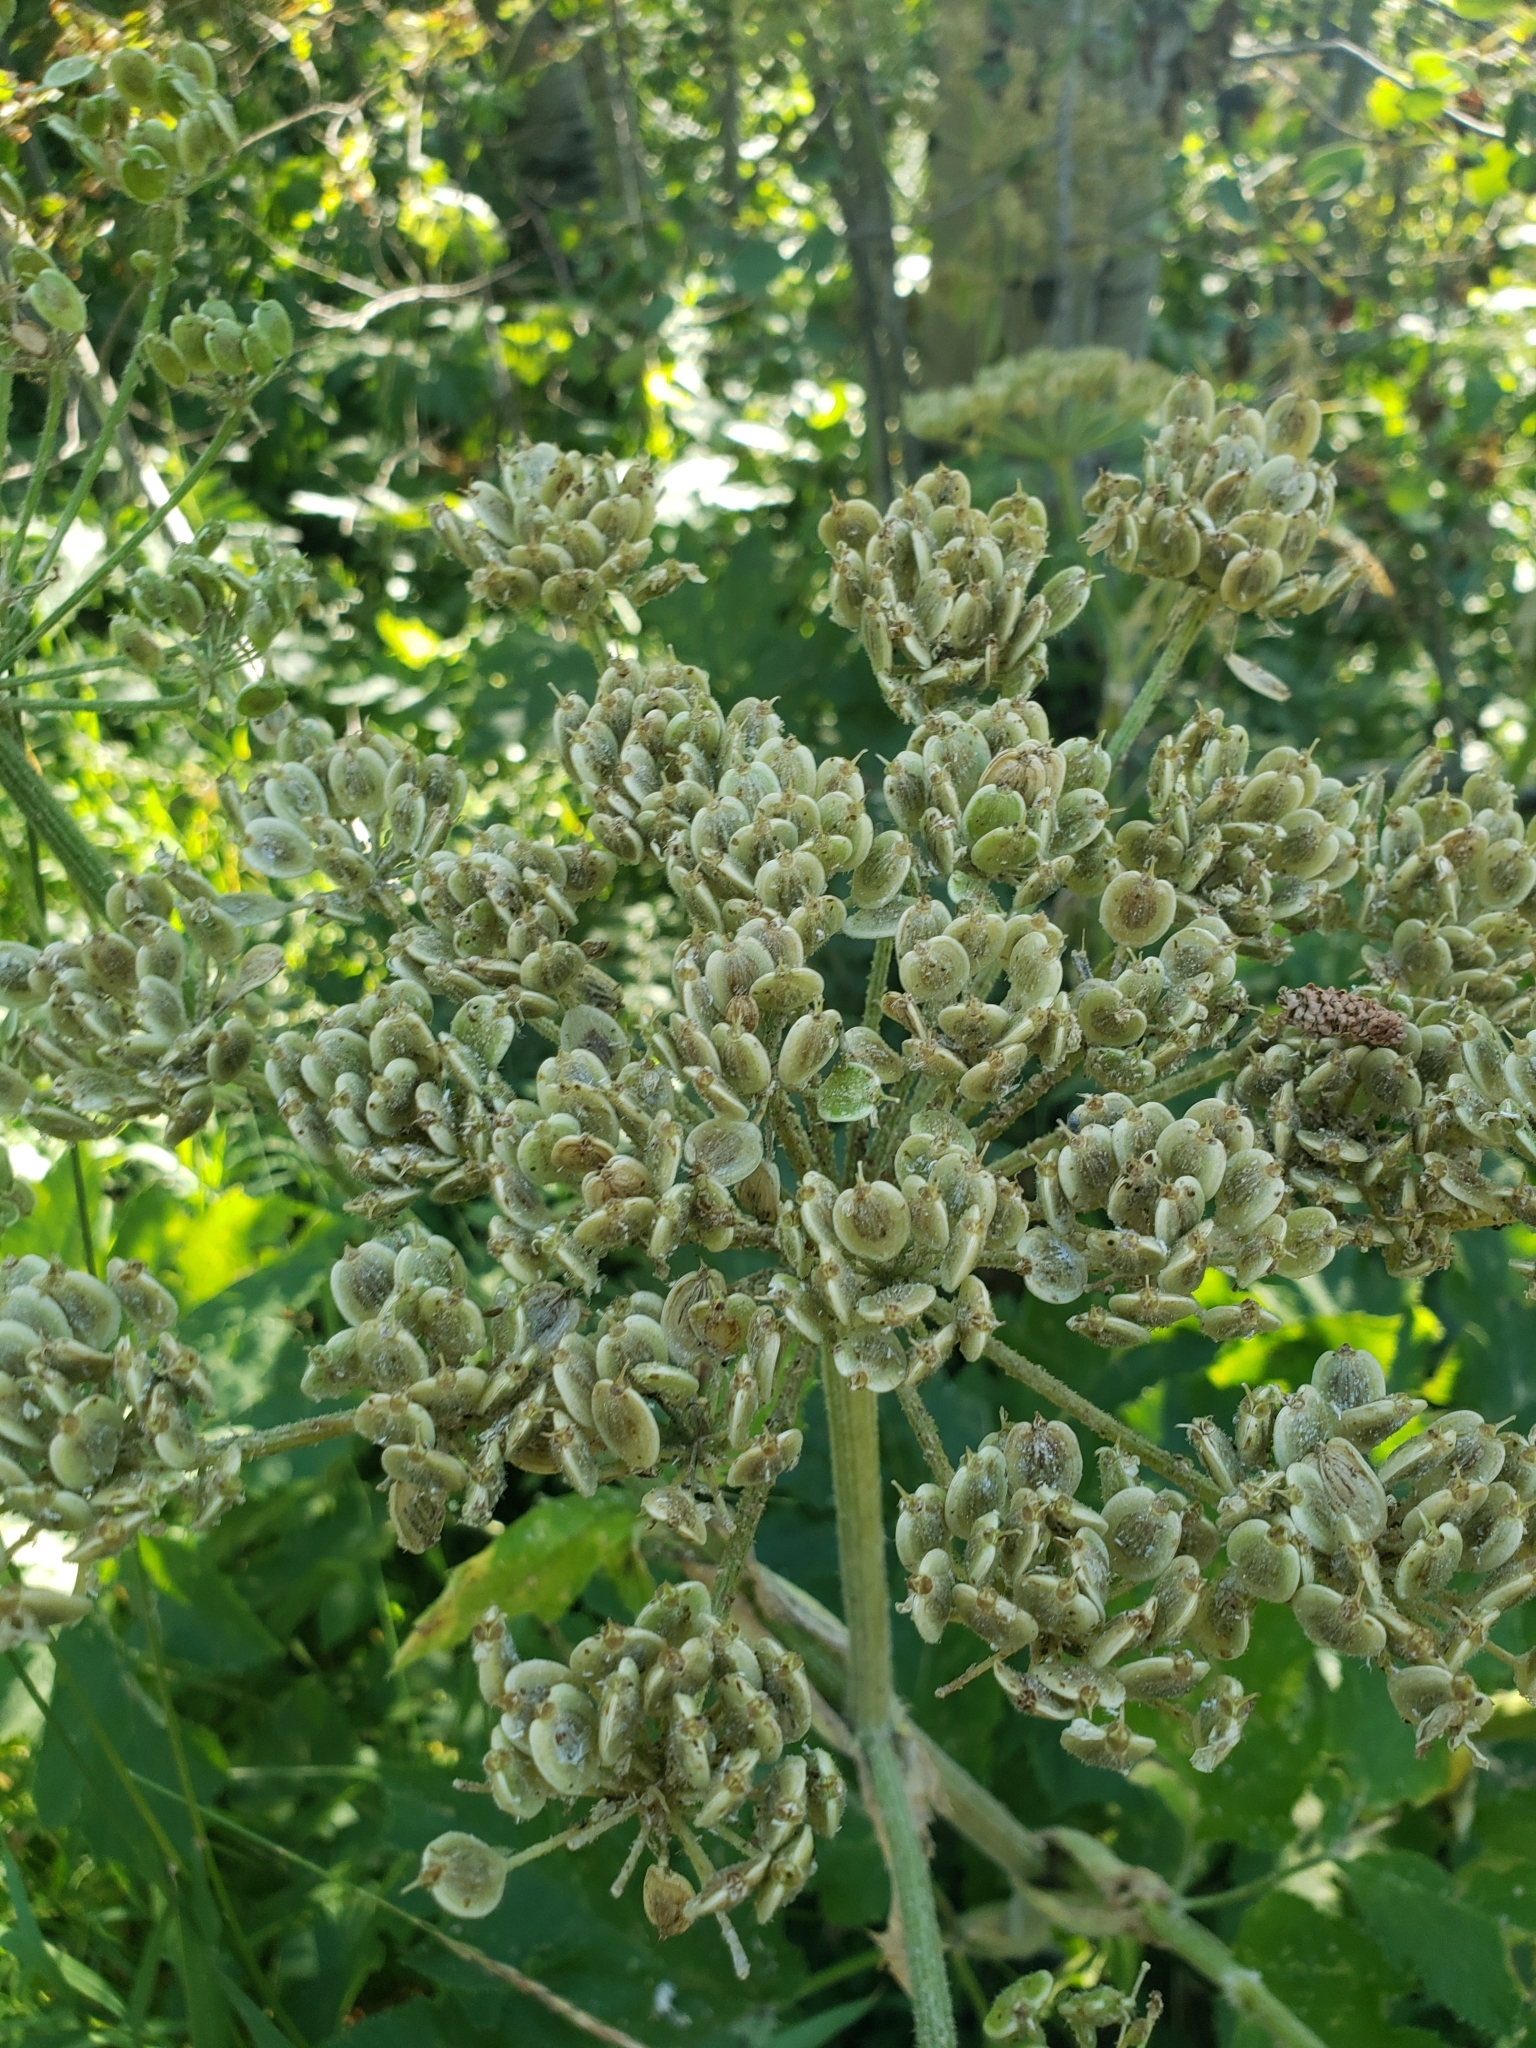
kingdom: Plantae
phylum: Tracheophyta
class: Magnoliopsida
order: Apiales
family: Apiaceae
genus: Heracleum
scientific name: Heracleum maximum
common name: American cow parsnip
